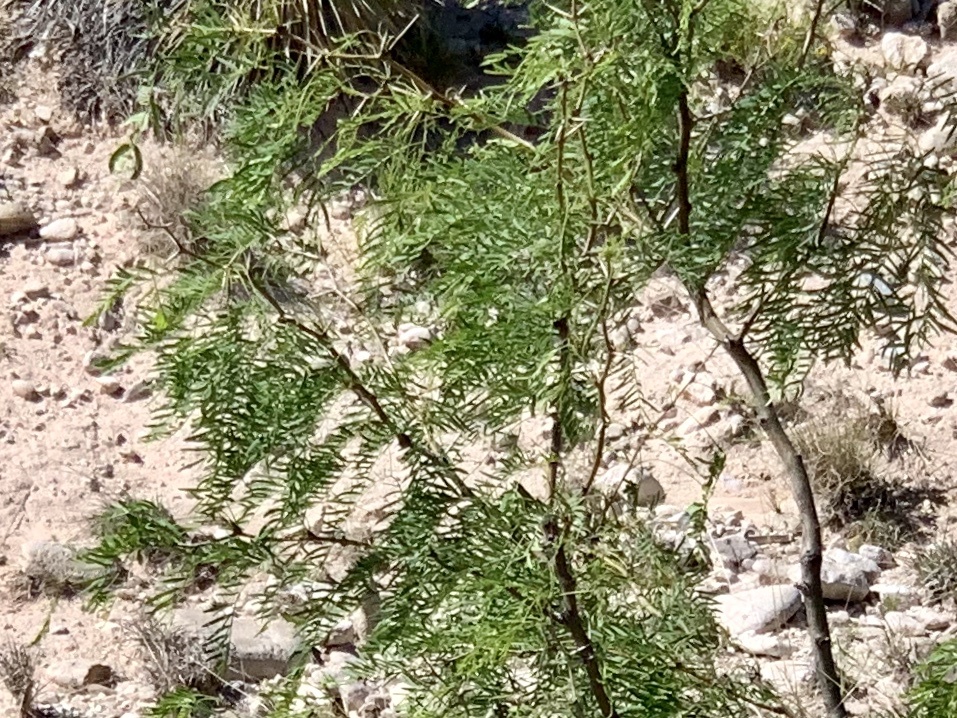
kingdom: Plantae
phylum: Tracheophyta
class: Magnoliopsida
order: Fabales
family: Fabaceae
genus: Prosopis
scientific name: Prosopis glandulosa
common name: Honey mesquite
